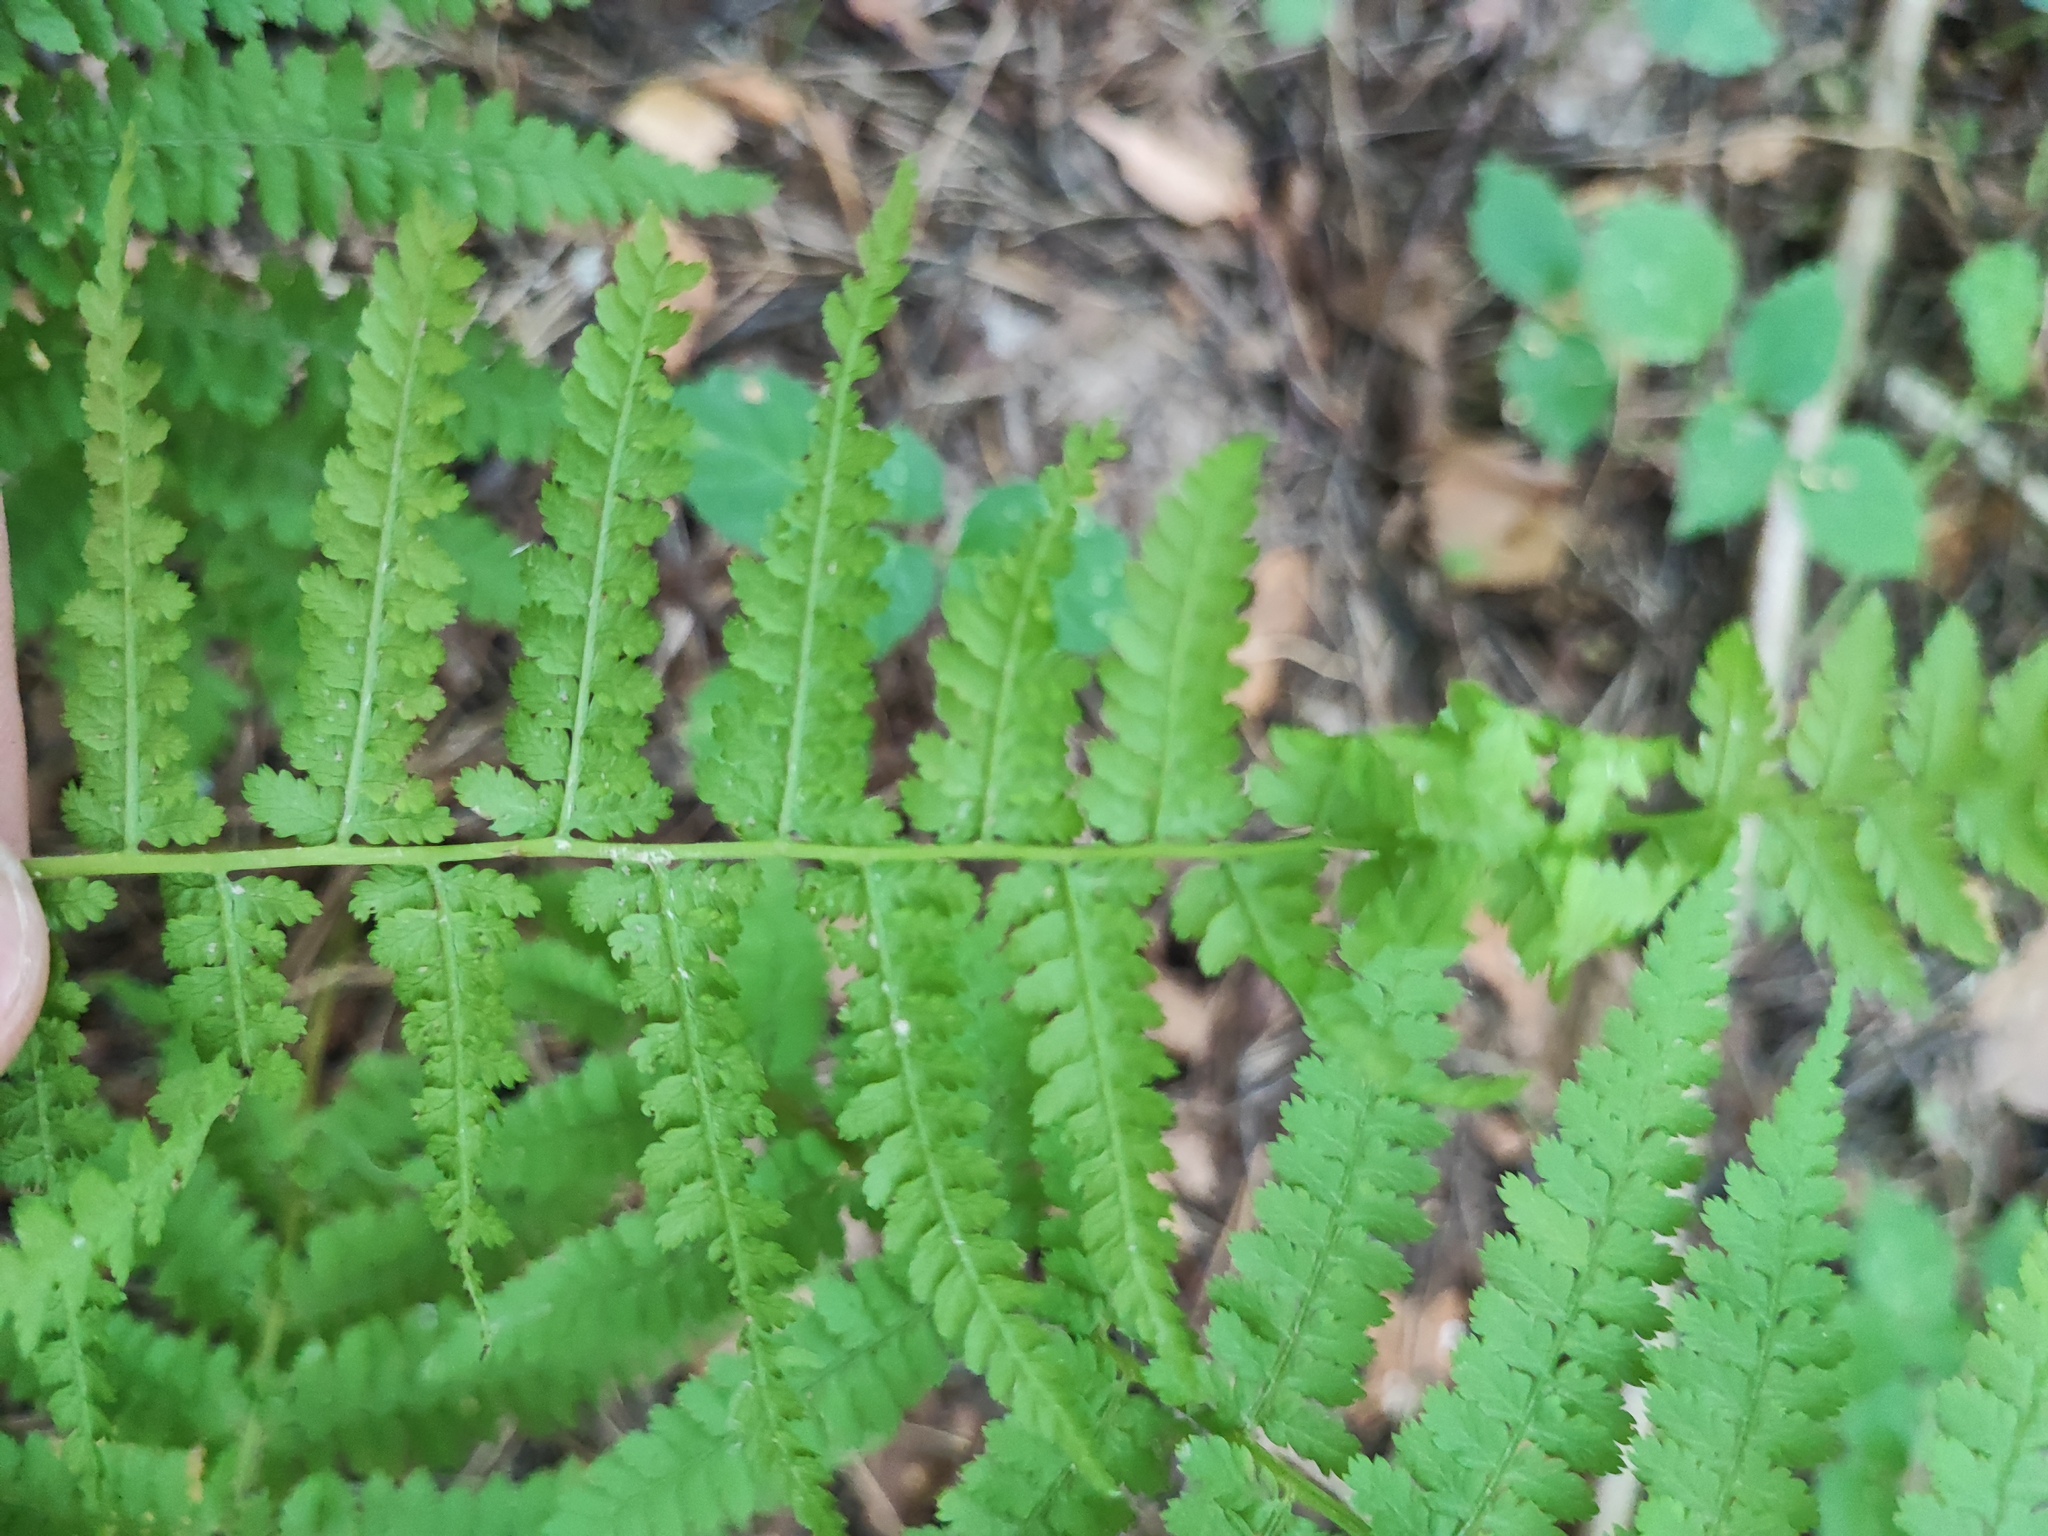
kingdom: Plantae
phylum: Tracheophyta
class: Polypodiopsida
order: Polypodiales
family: Athyriaceae
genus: Athyrium
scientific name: Athyrium filix-femina
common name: Lady fern
